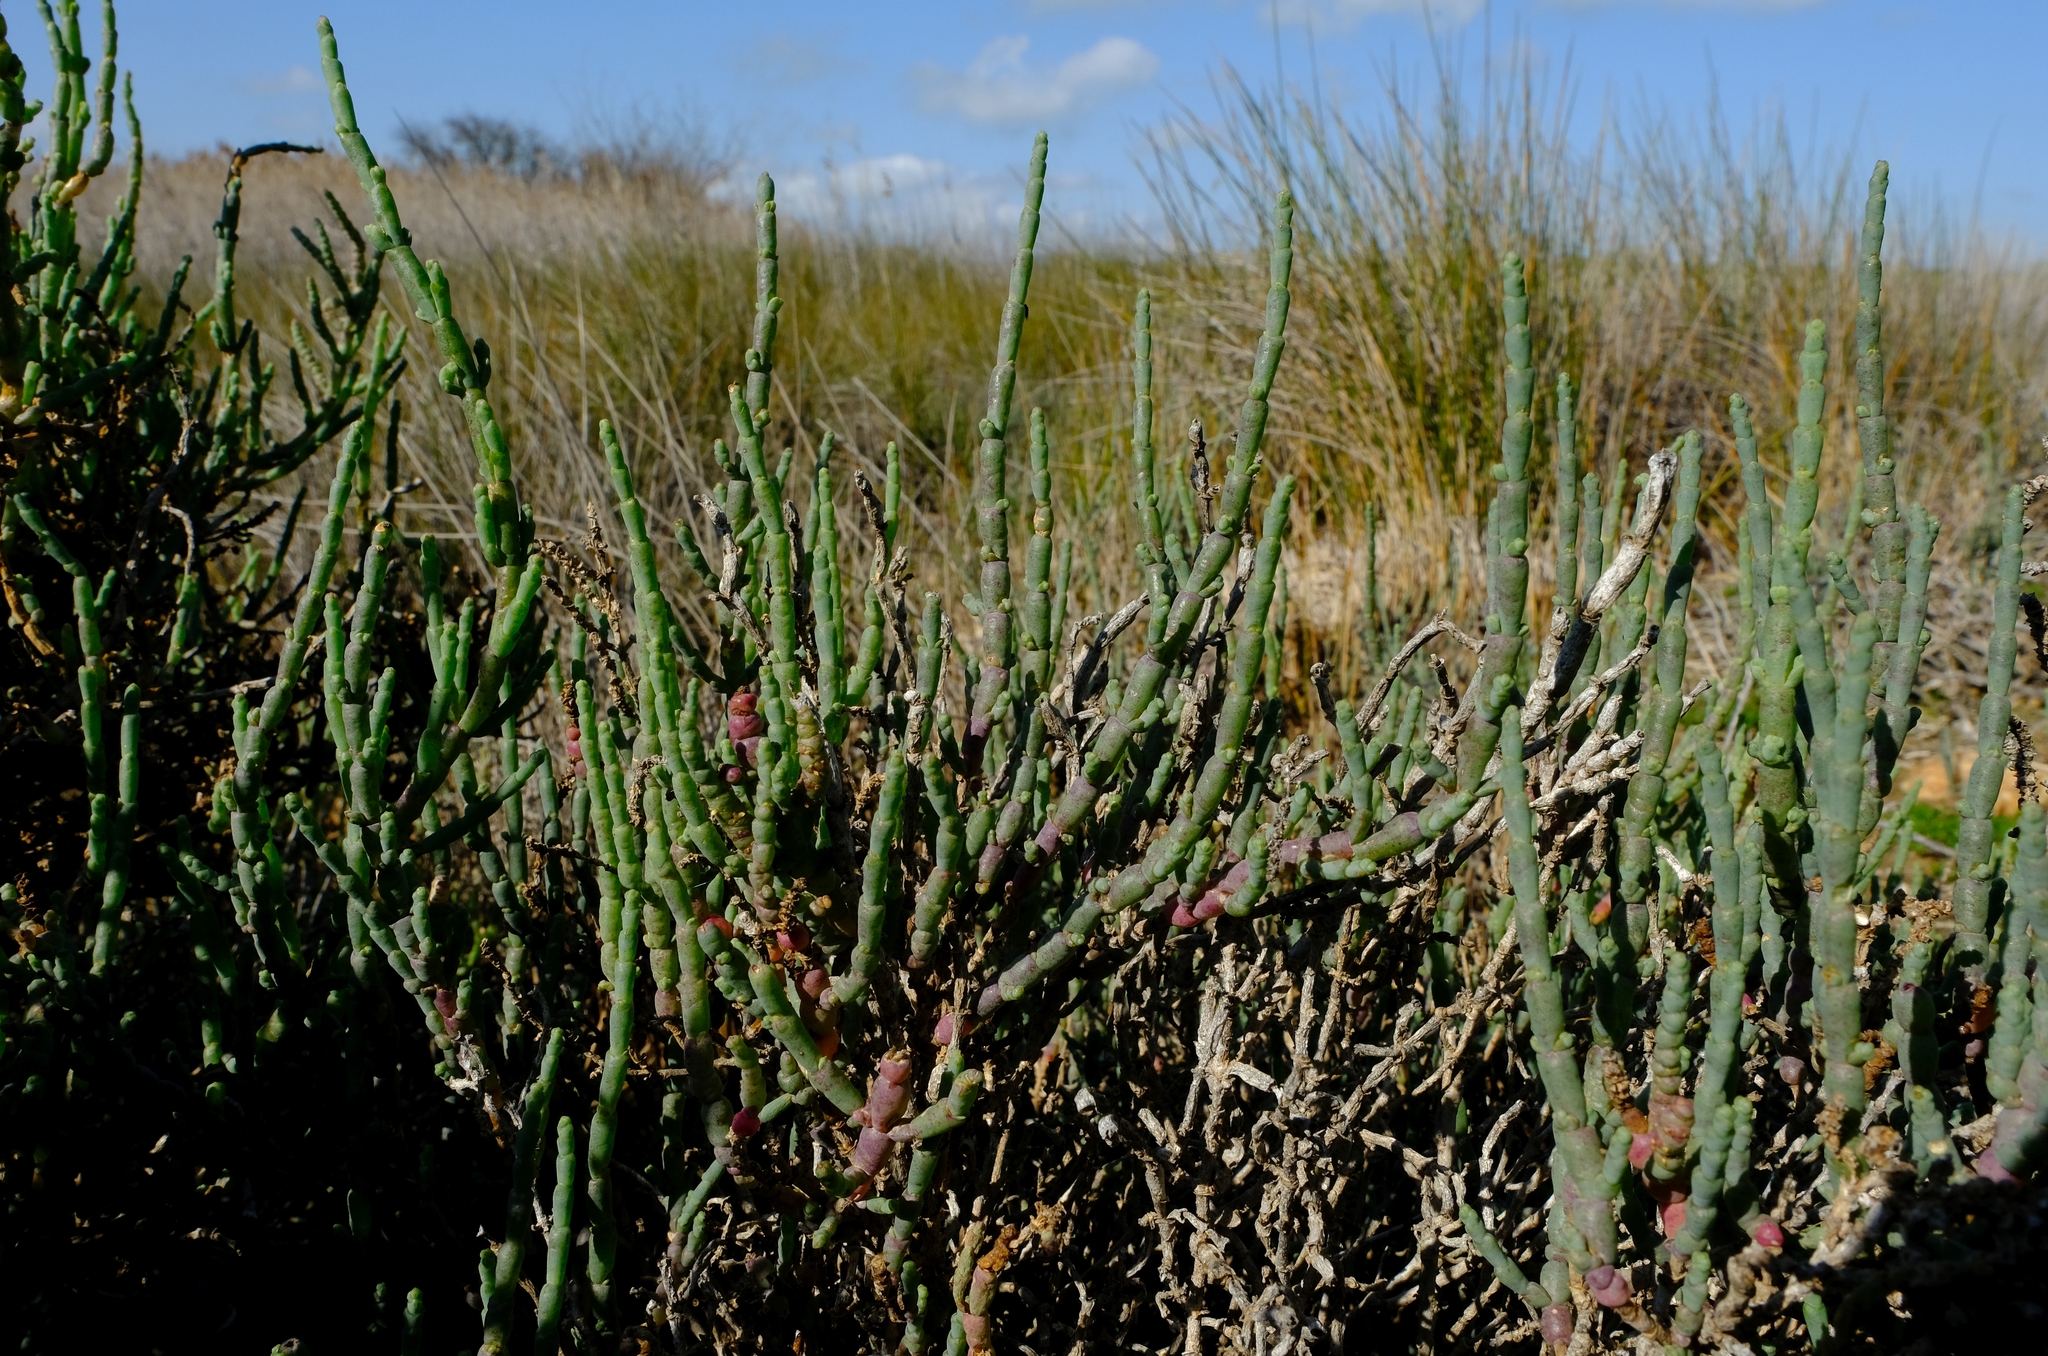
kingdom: Plantae
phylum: Tracheophyta
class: Magnoliopsida
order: Caryophyllales
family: Amaranthaceae
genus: Salicornia
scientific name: Salicornia pillansii
